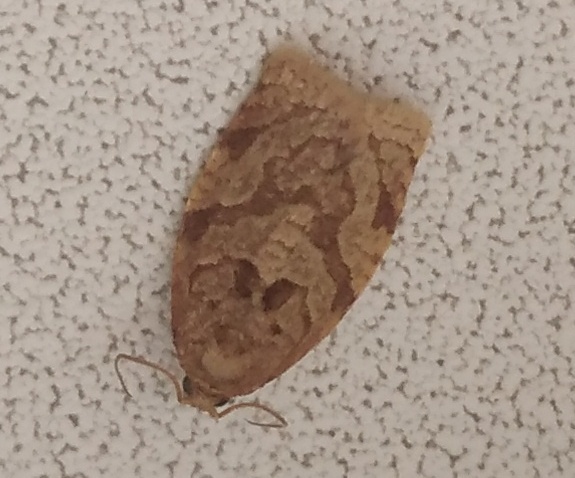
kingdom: Animalia
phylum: Arthropoda
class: Insecta
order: Lepidoptera
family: Tortricidae
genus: Adoxophyes
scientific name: Adoxophyes orana
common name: Summer fruit tortrix
